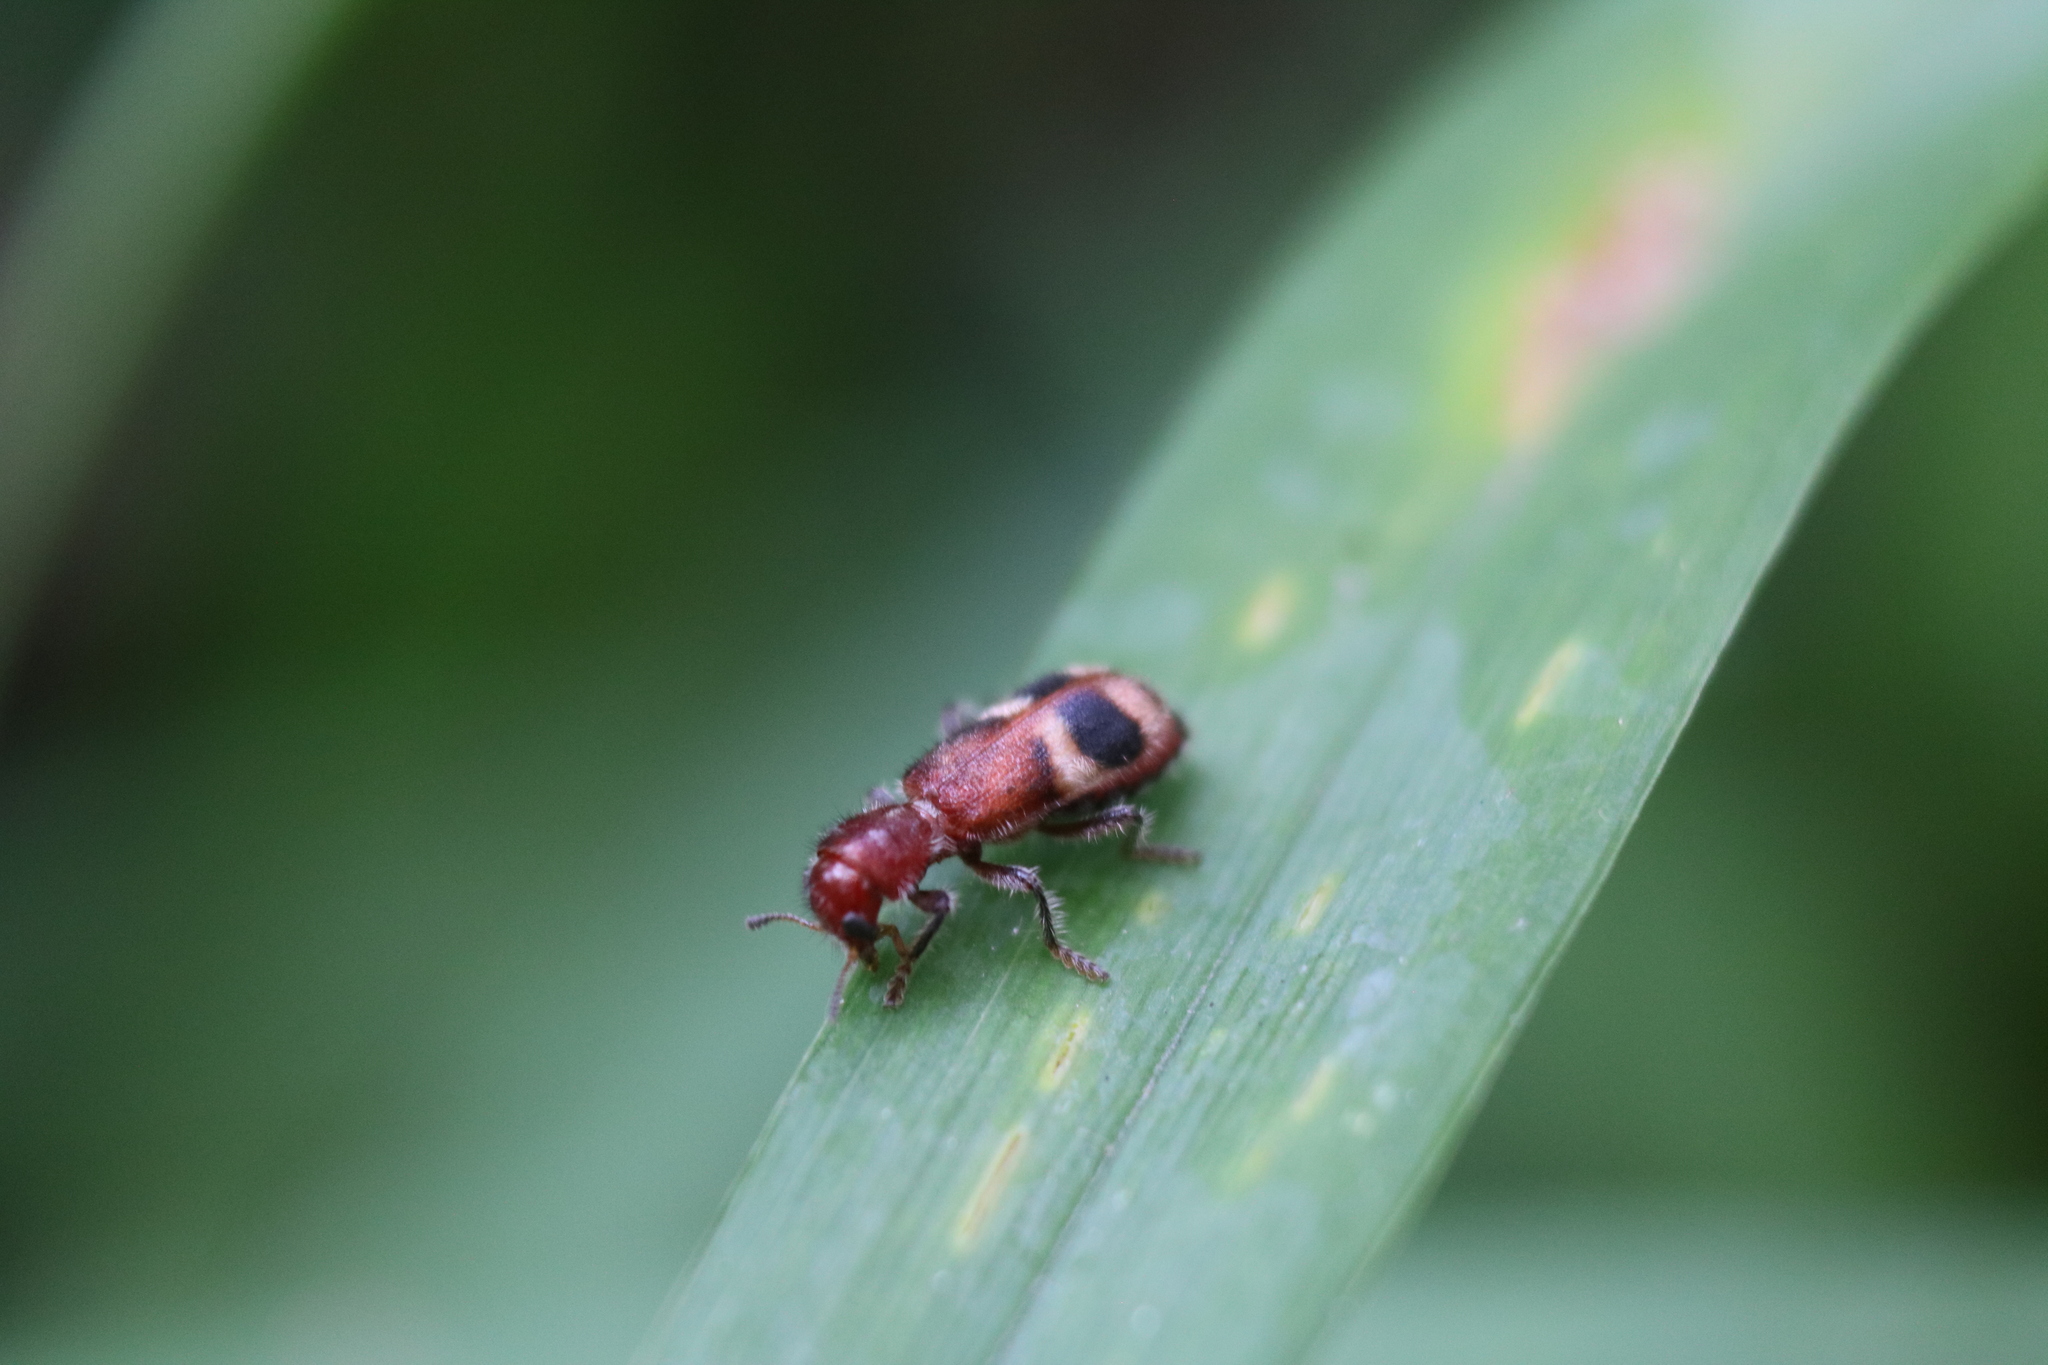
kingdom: Animalia
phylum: Arthropoda
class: Insecta
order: Coleoptera
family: Cleridae
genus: Enoclerus
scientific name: Enoclerus rosmarus
